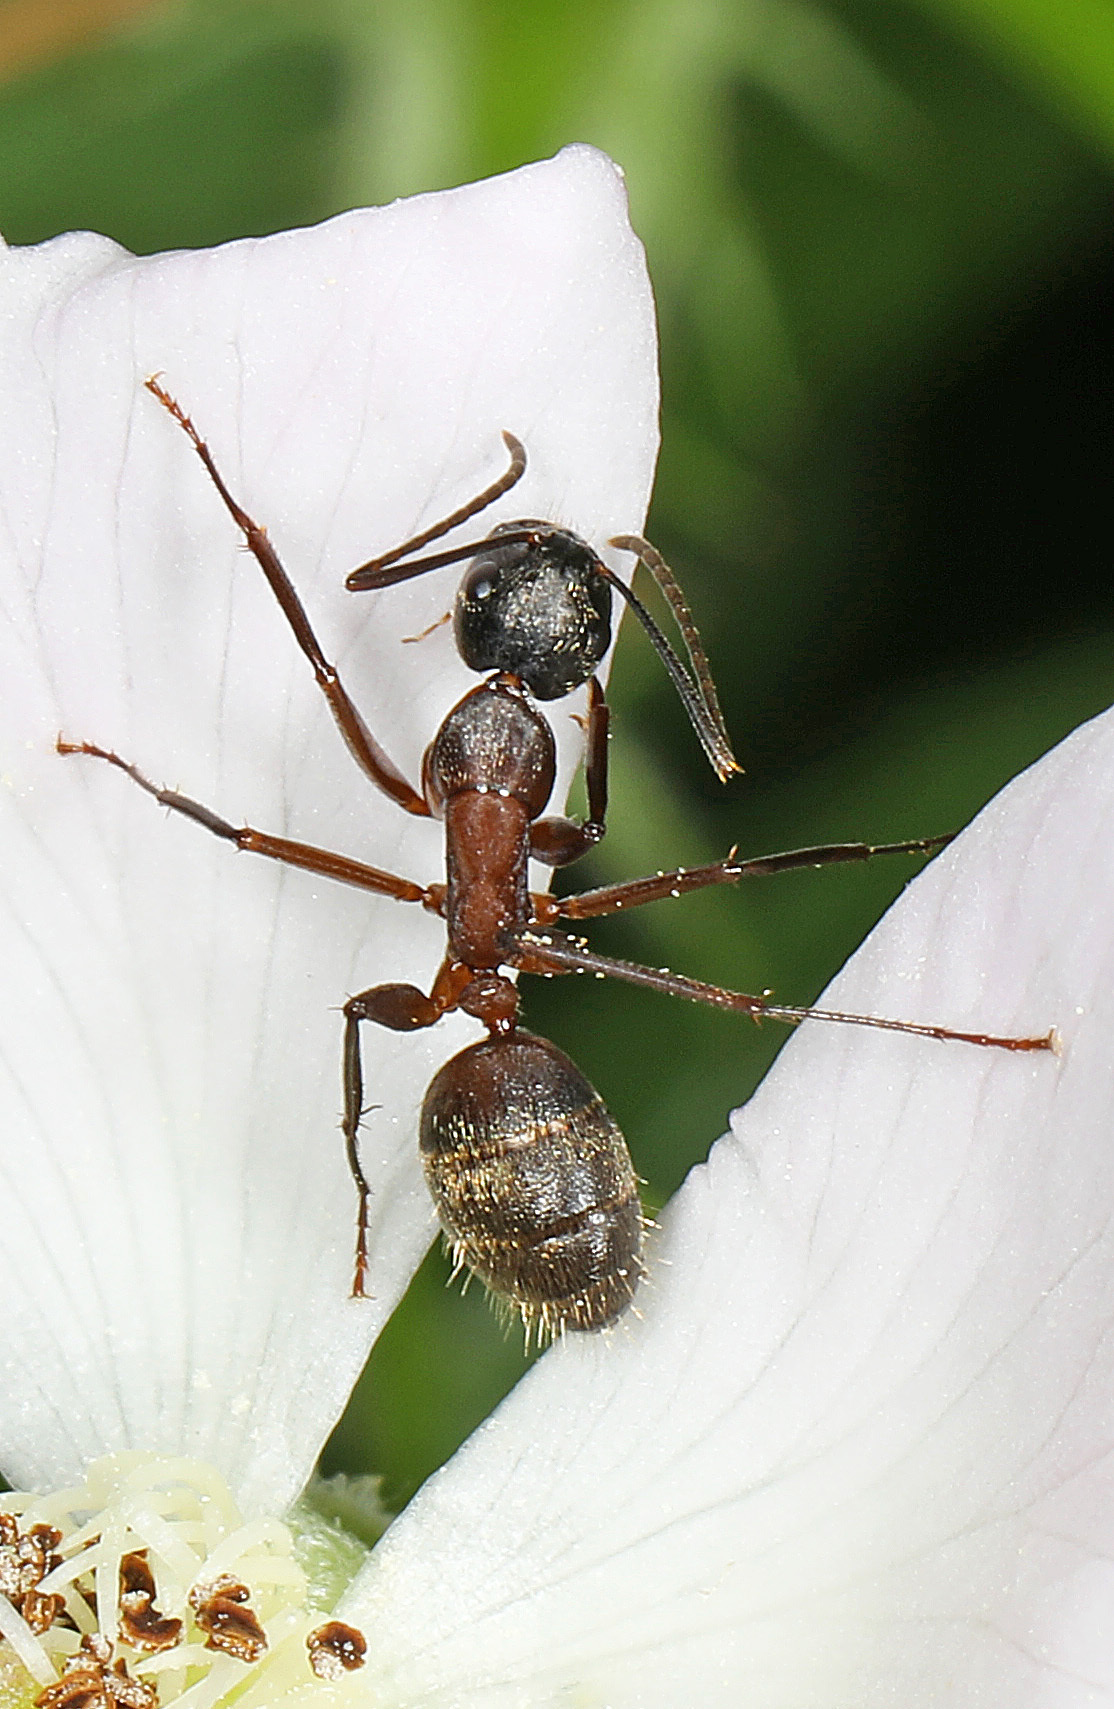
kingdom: Animalia
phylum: Arthropoda
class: Insecta
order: Hymenoptera
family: Formicidae
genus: Camponotus
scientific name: Camponotus chromaiodes
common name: Red carpenter ant
